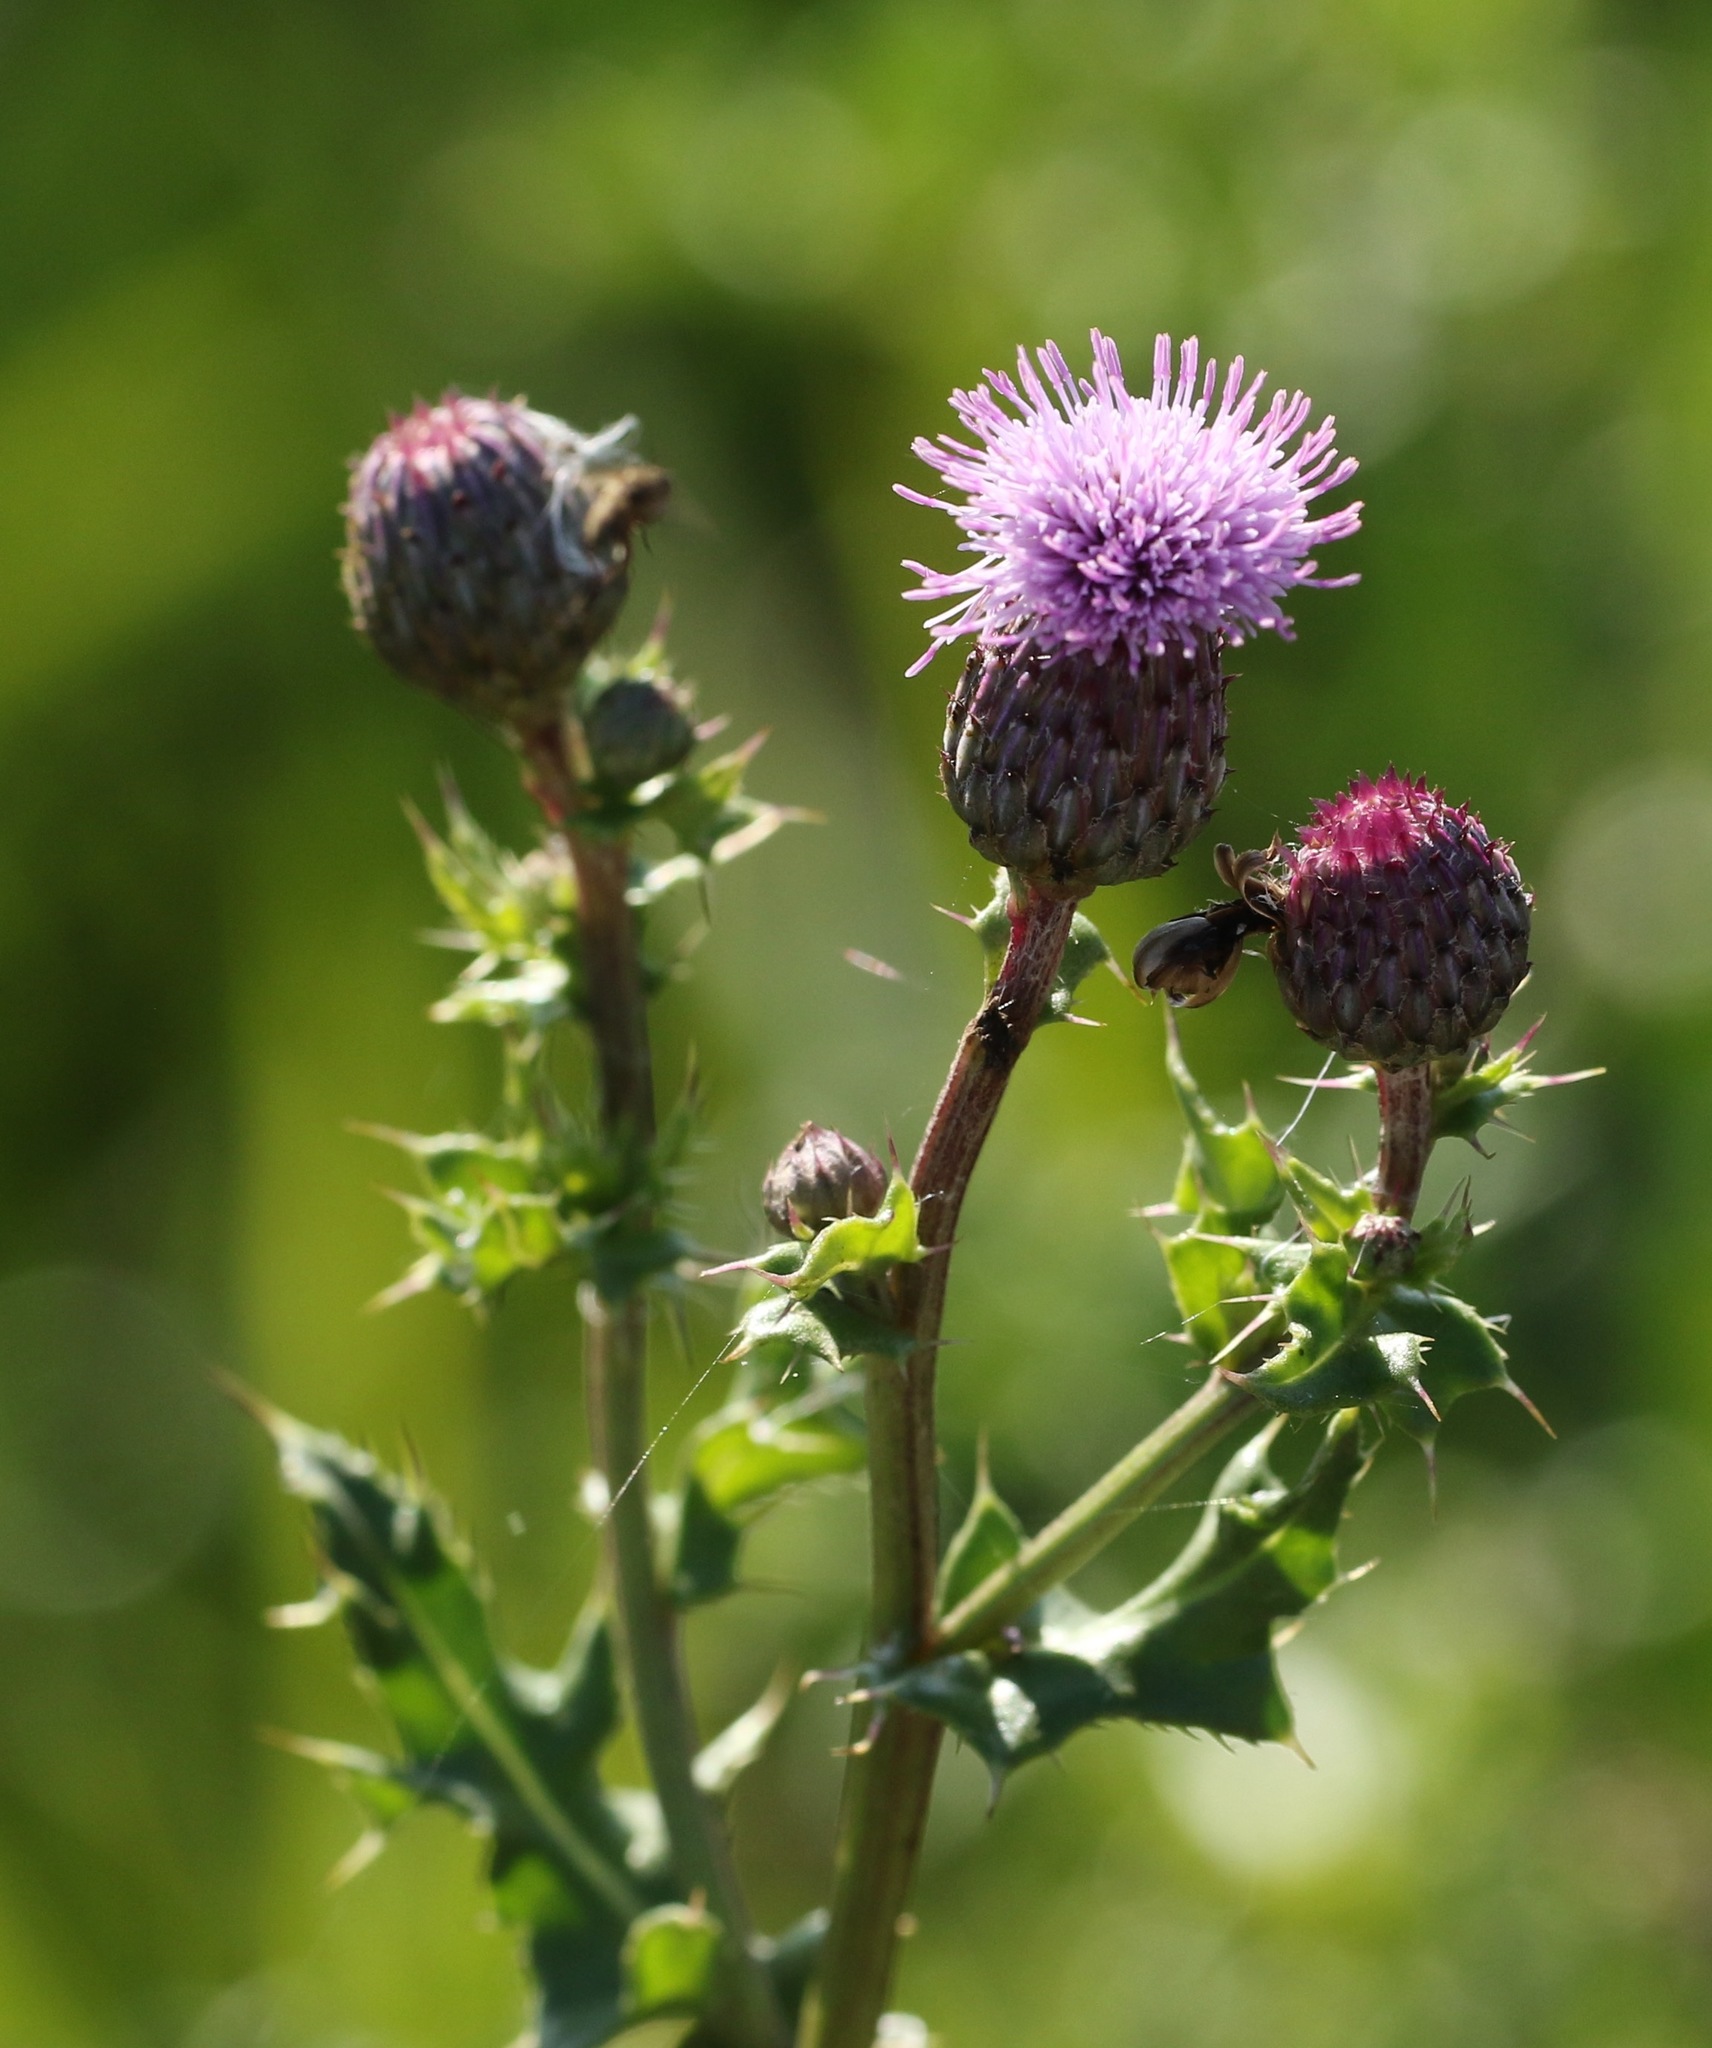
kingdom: Plantae
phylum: Tracheophyta
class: Magnoliopsida
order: Asterales
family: Asteraceae
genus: Cirsium
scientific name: Cirsium arvense
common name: Creeping thistle
